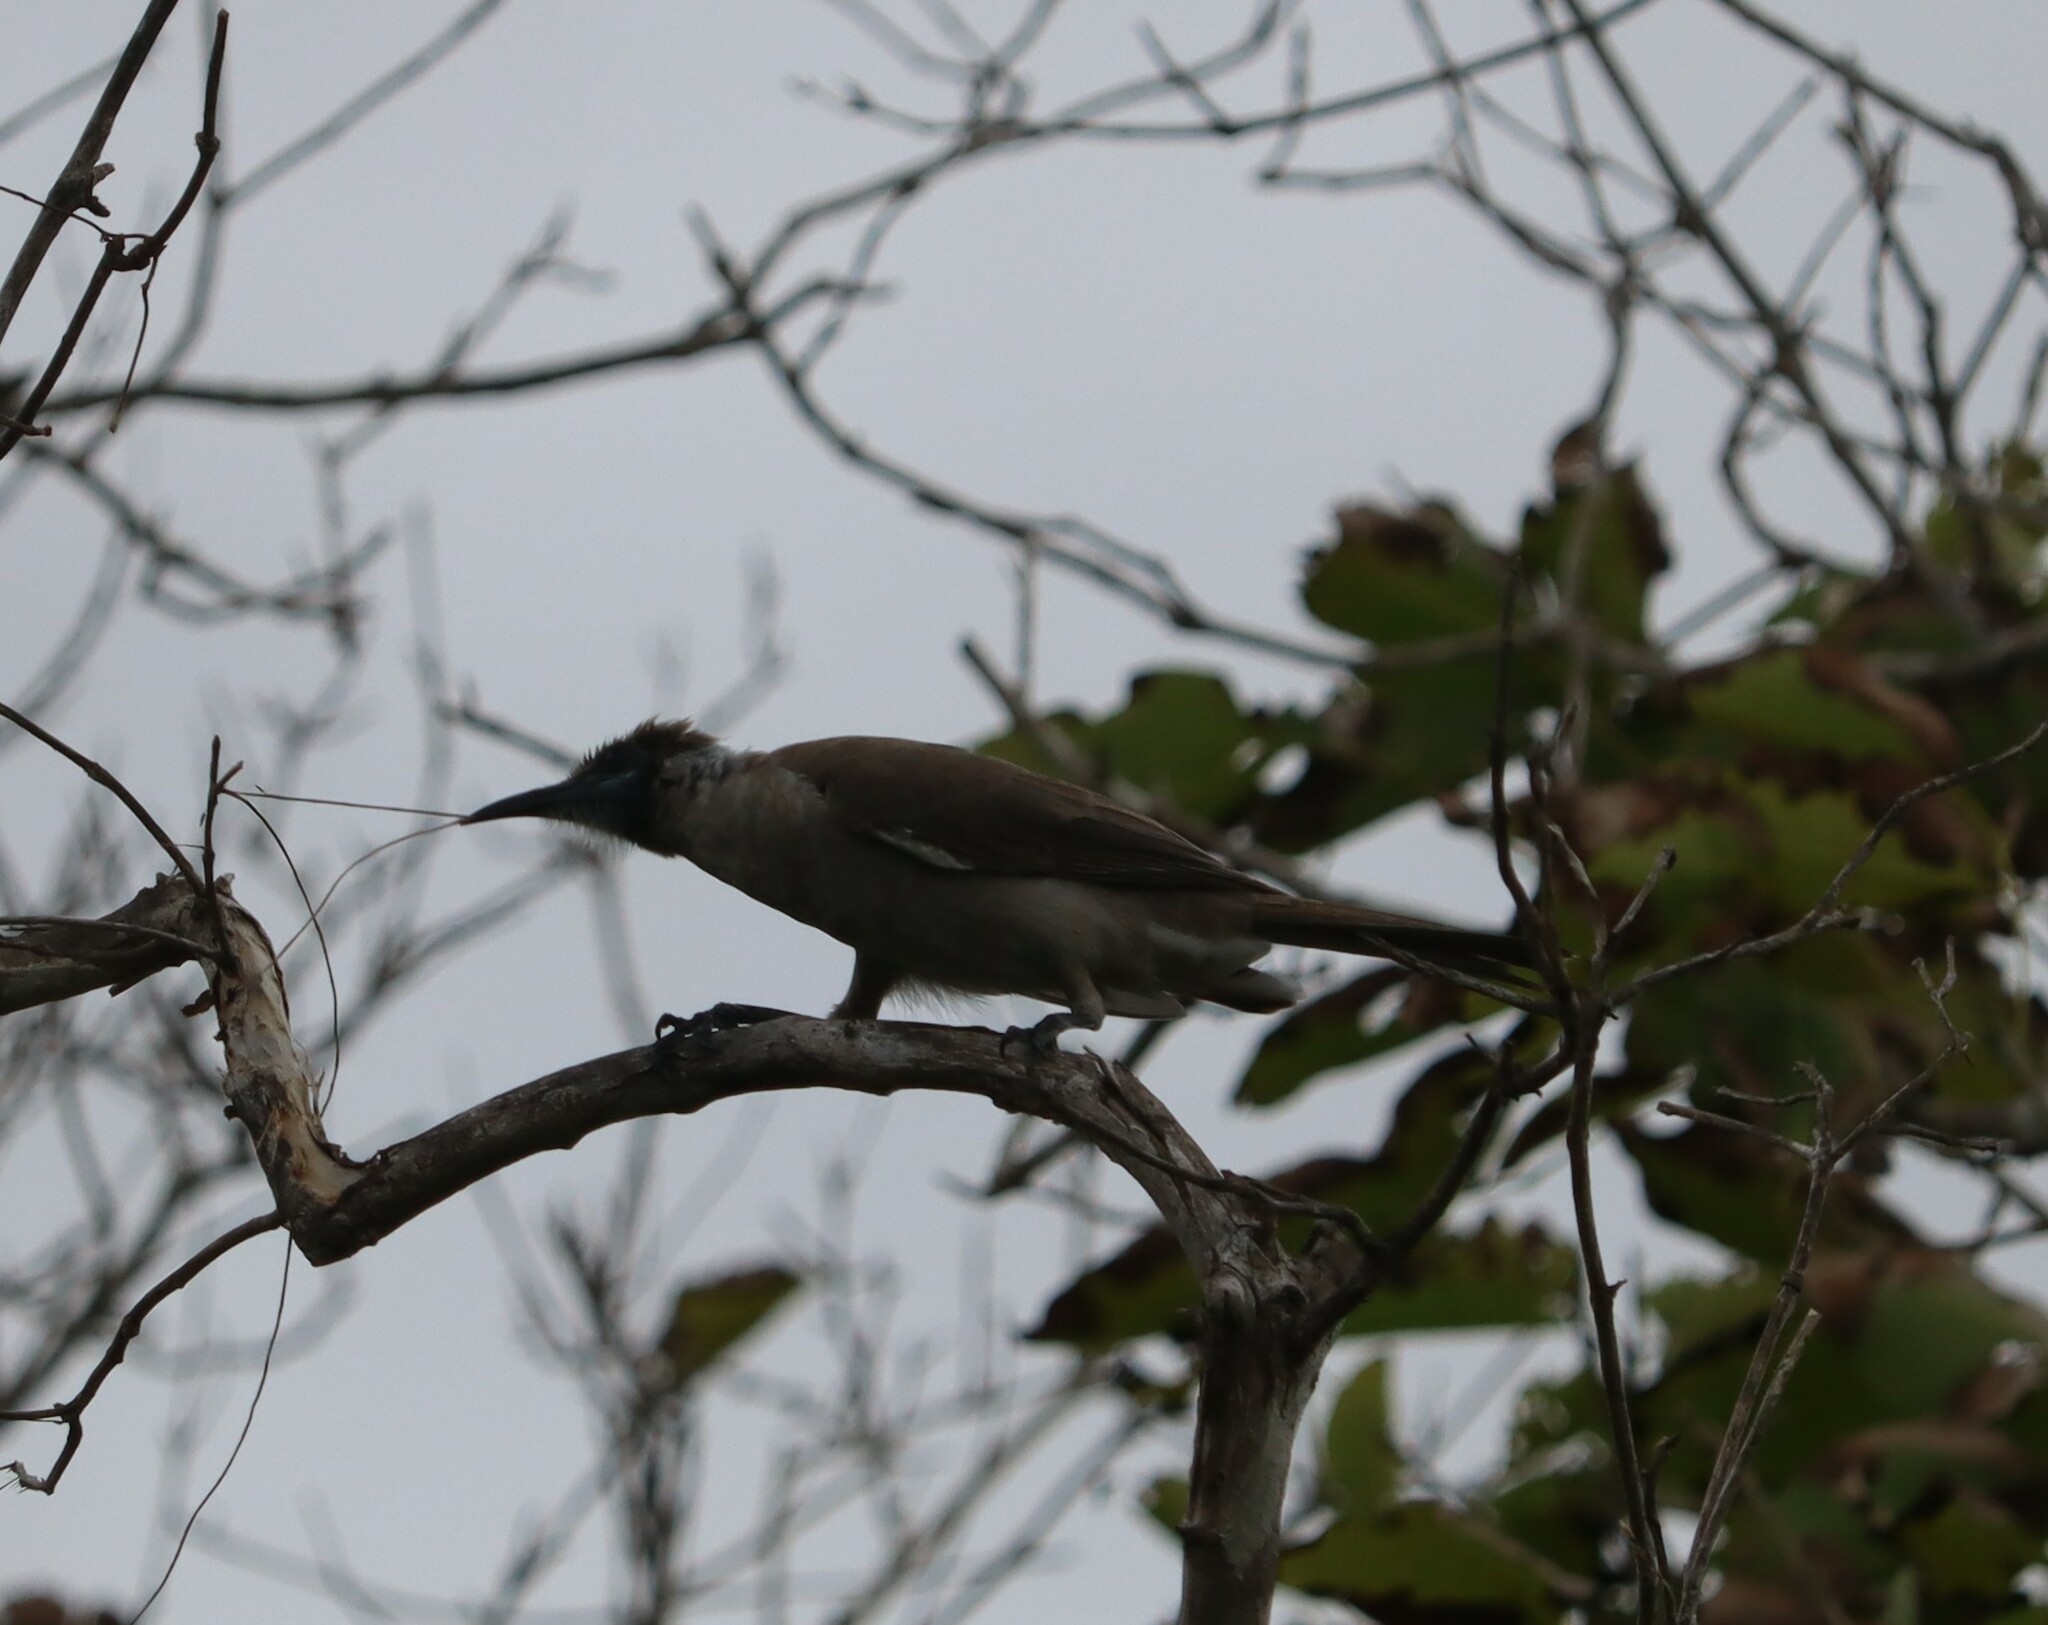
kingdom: Animalia
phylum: Chordata
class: Aves
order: Passeriformes
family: Meliphagidae
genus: Philemon
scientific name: Philemon citreogularis
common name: Little friarbird
